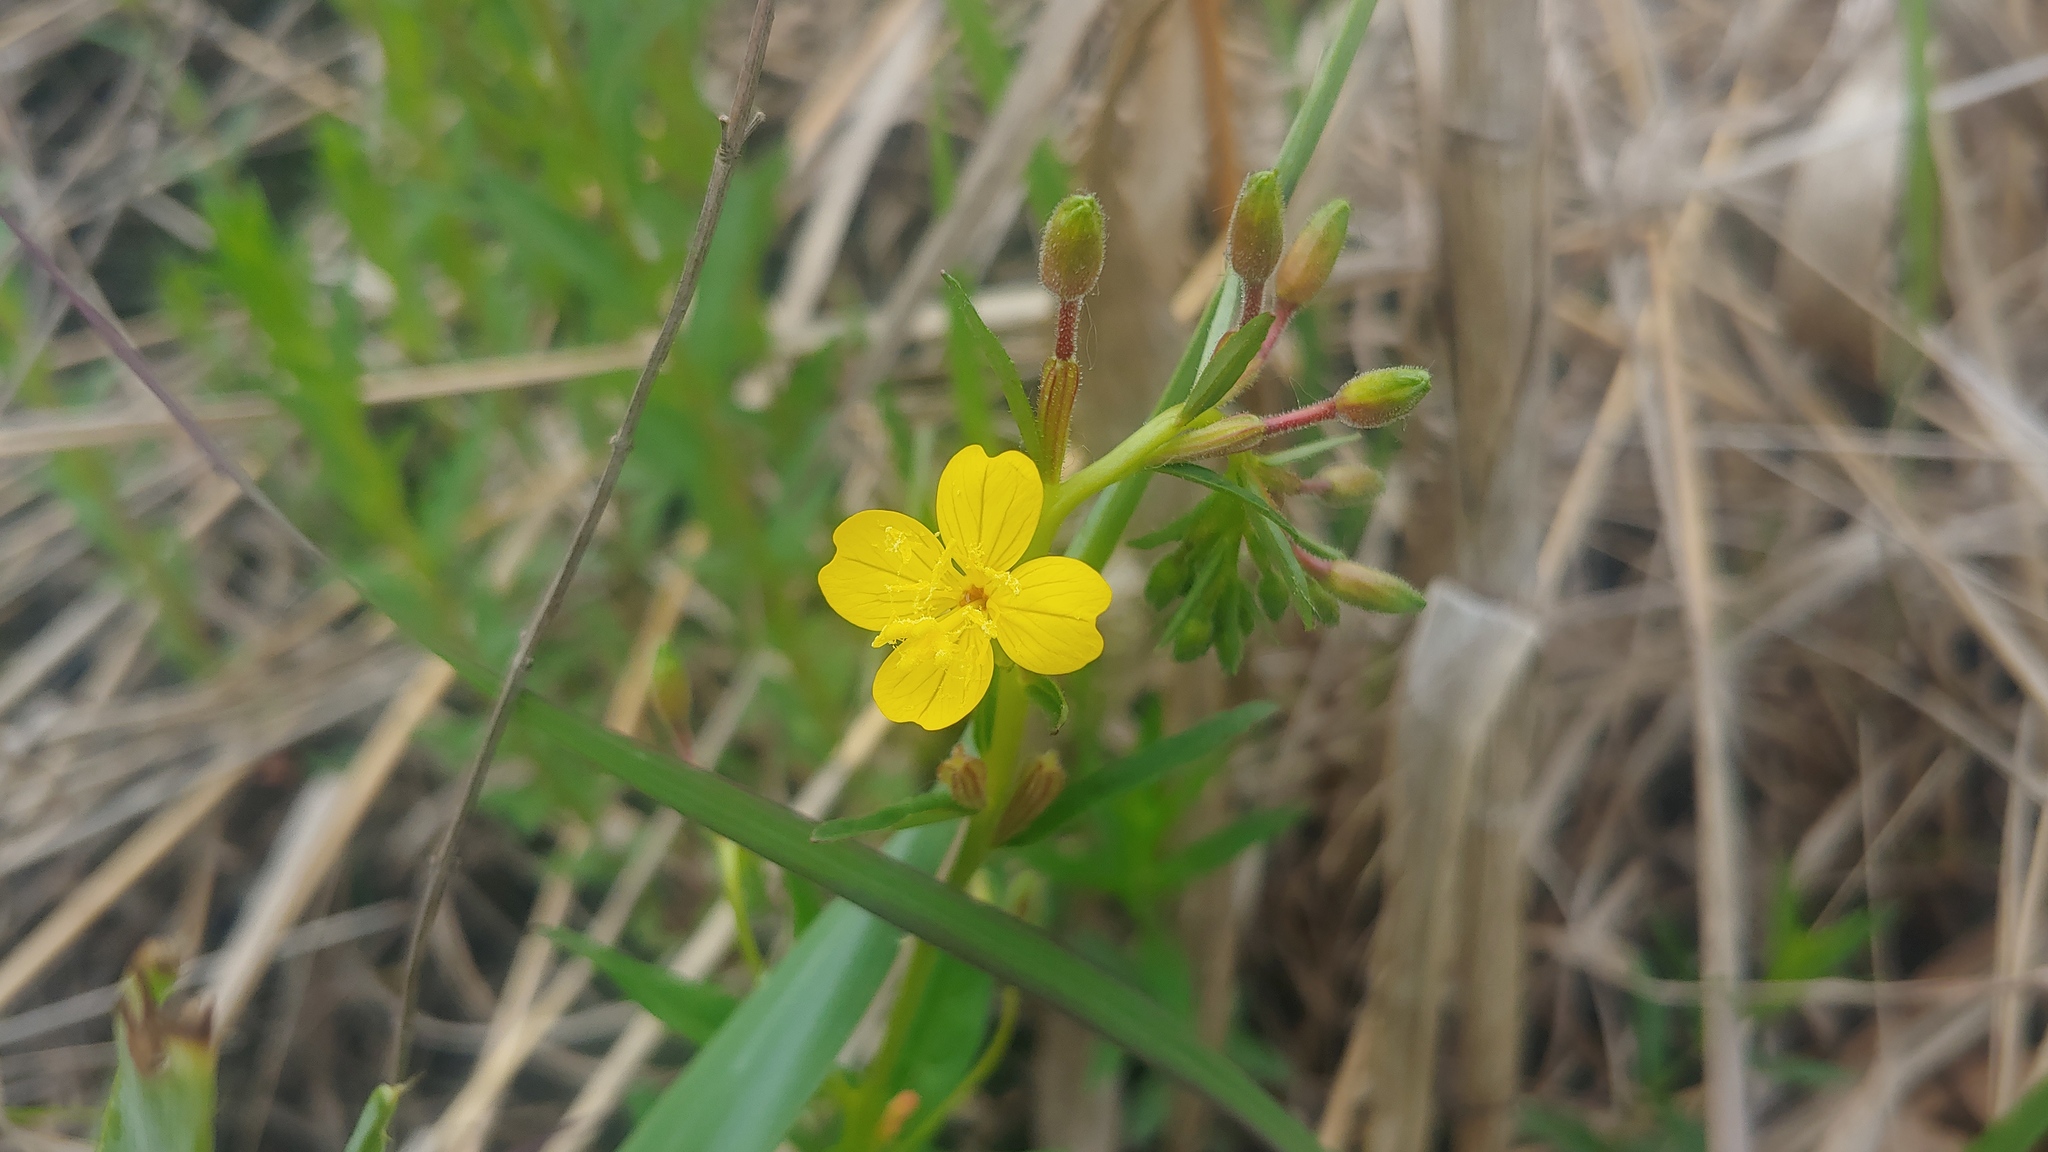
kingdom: Plantae
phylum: Tracheophyta
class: Magnoliopsida
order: Myrtales
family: Onagraceae
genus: Oenothera
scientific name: Oenothera perennis
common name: Small sundrops
